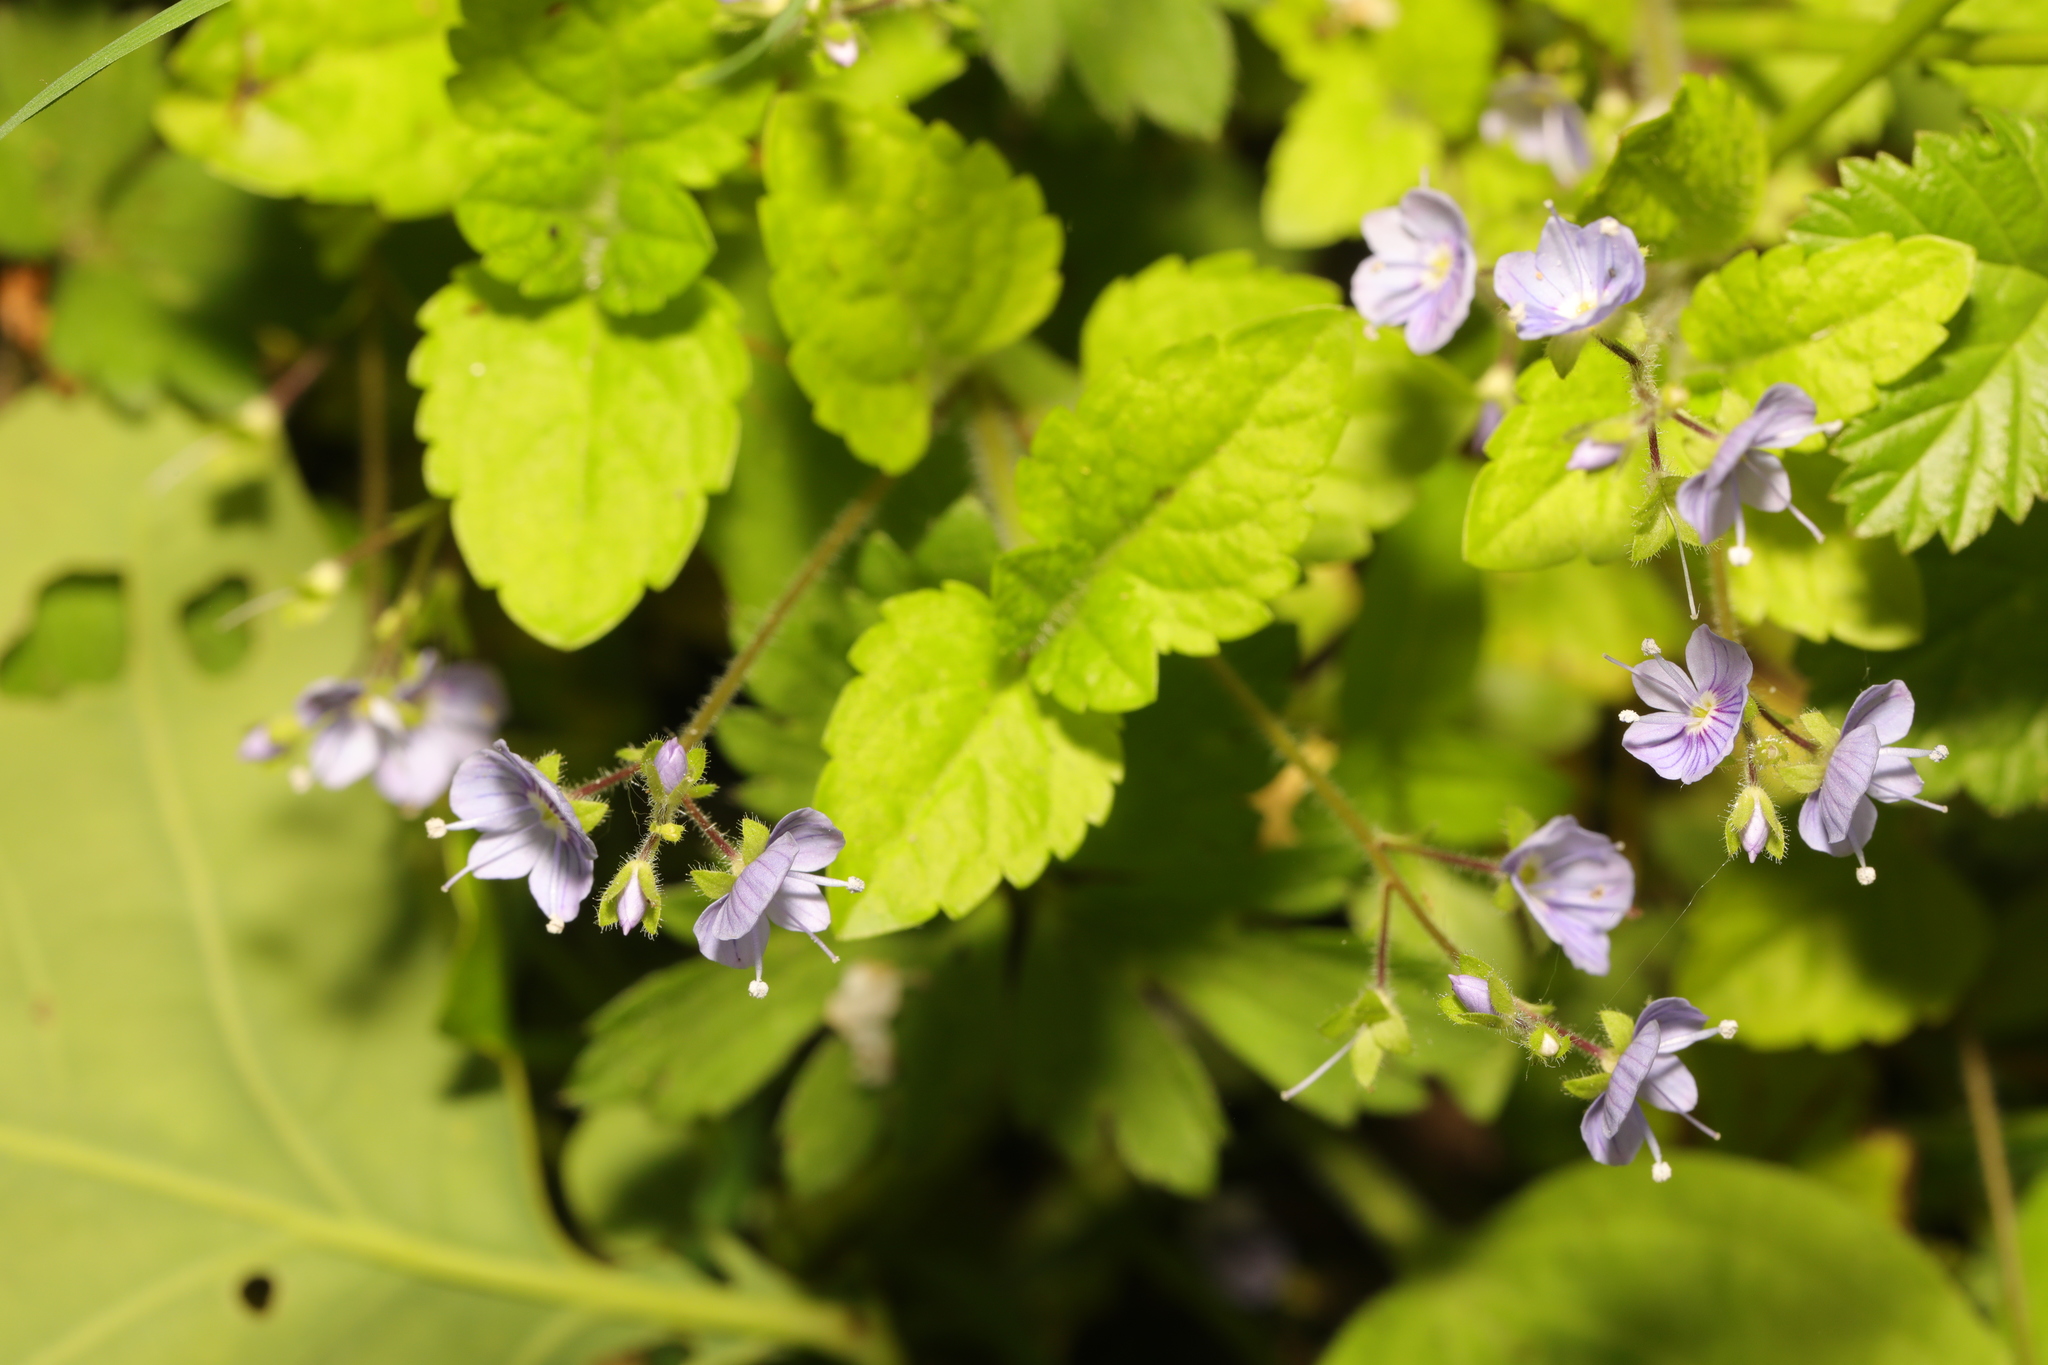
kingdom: Plantae
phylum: Tracheophyta
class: Magnoliopsida
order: Lamiales
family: Plantaginaceae
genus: Veronica
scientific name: Veronica montana
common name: Wood speedwell
